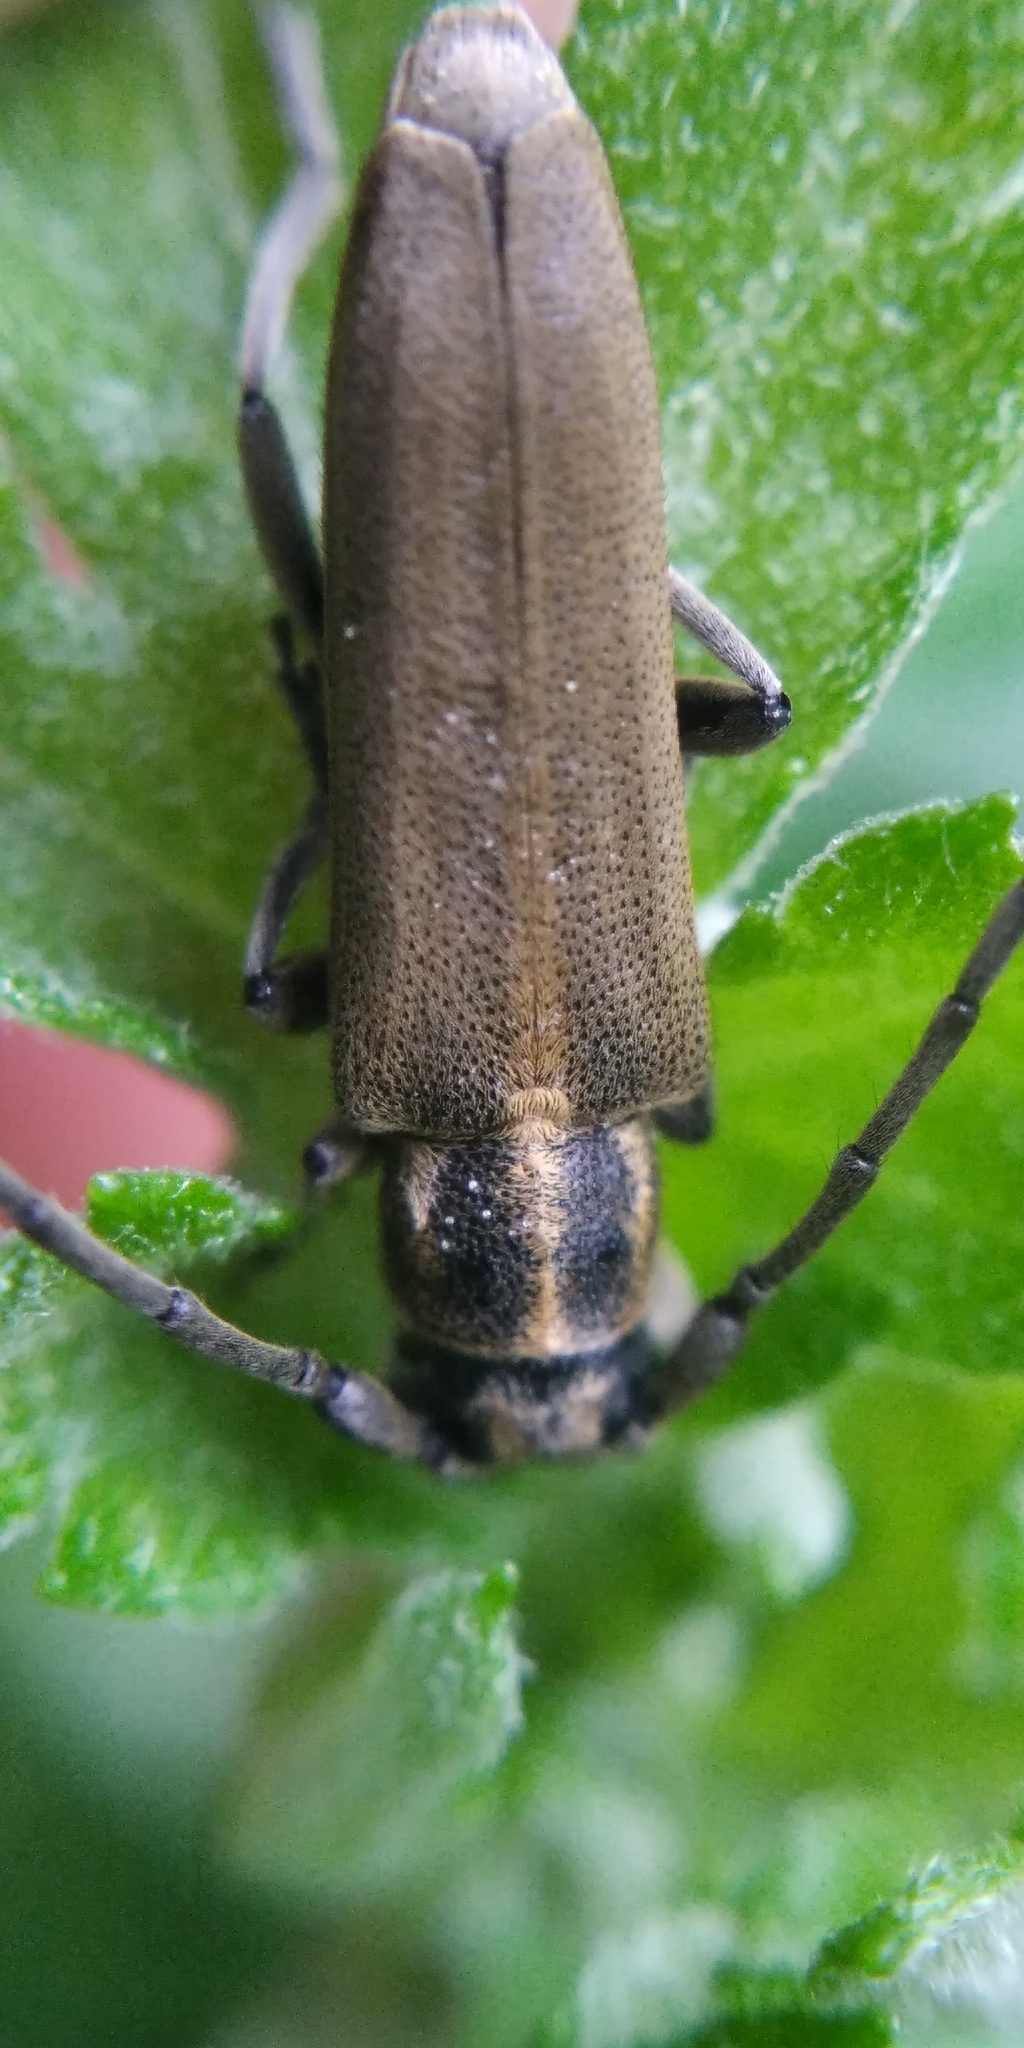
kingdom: Animalia
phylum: Arthropoda
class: Insecta
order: Coleoptera
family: Cerambycidae
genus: Phytoecia
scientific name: Phytoecia nigricornis
